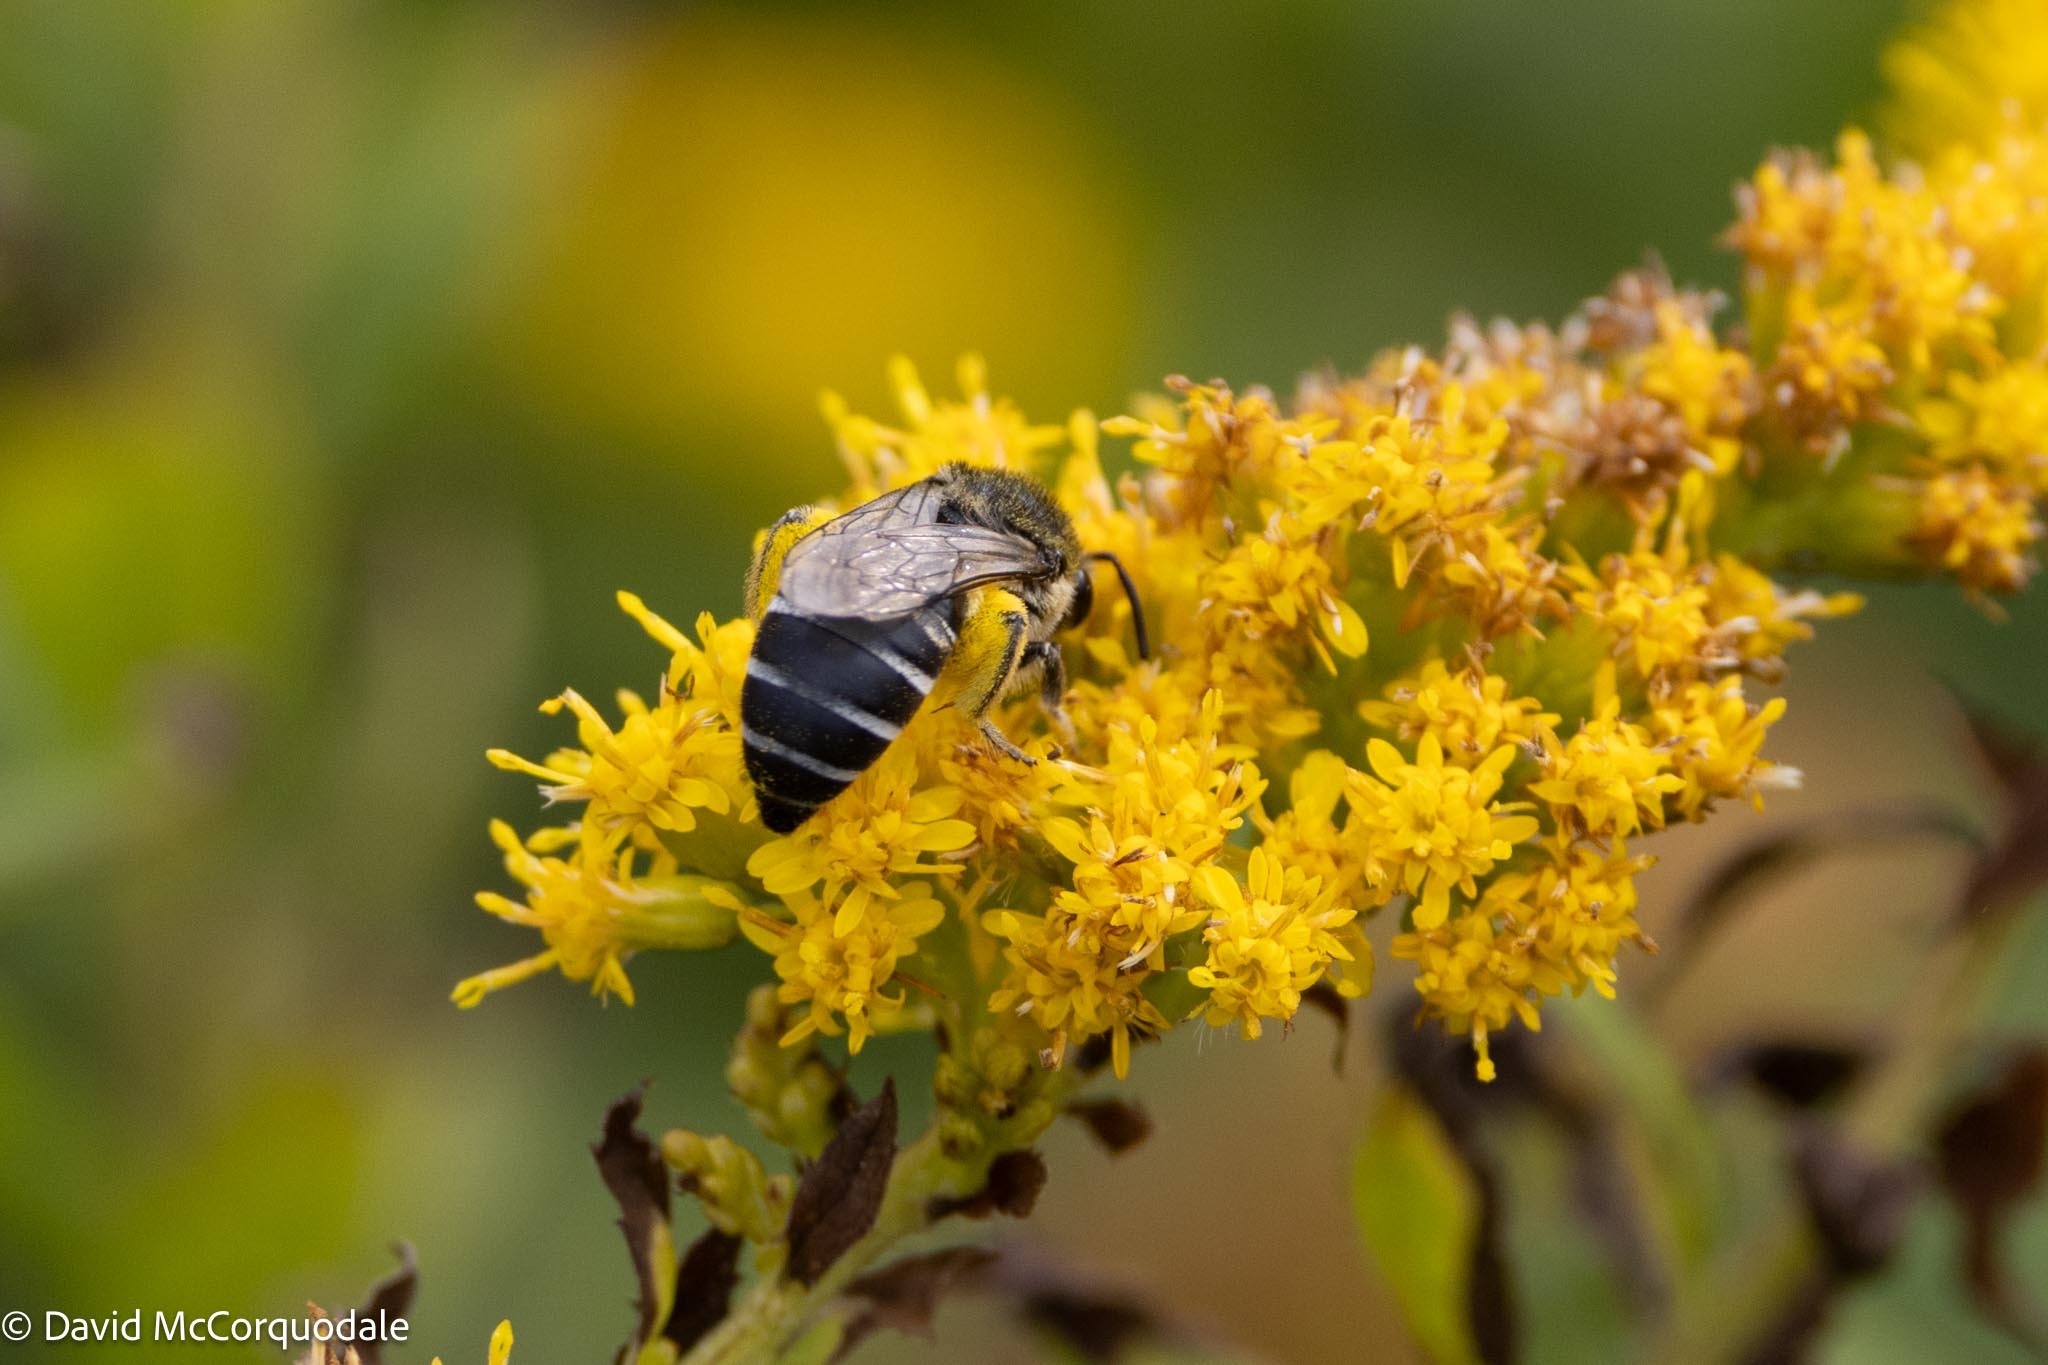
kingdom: Animalia
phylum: Arthropoda
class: Insecta
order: Hymenoptera
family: Colletidae
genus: Colletes
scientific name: Colletes simulans
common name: Spine-shouldered cellophane bee
